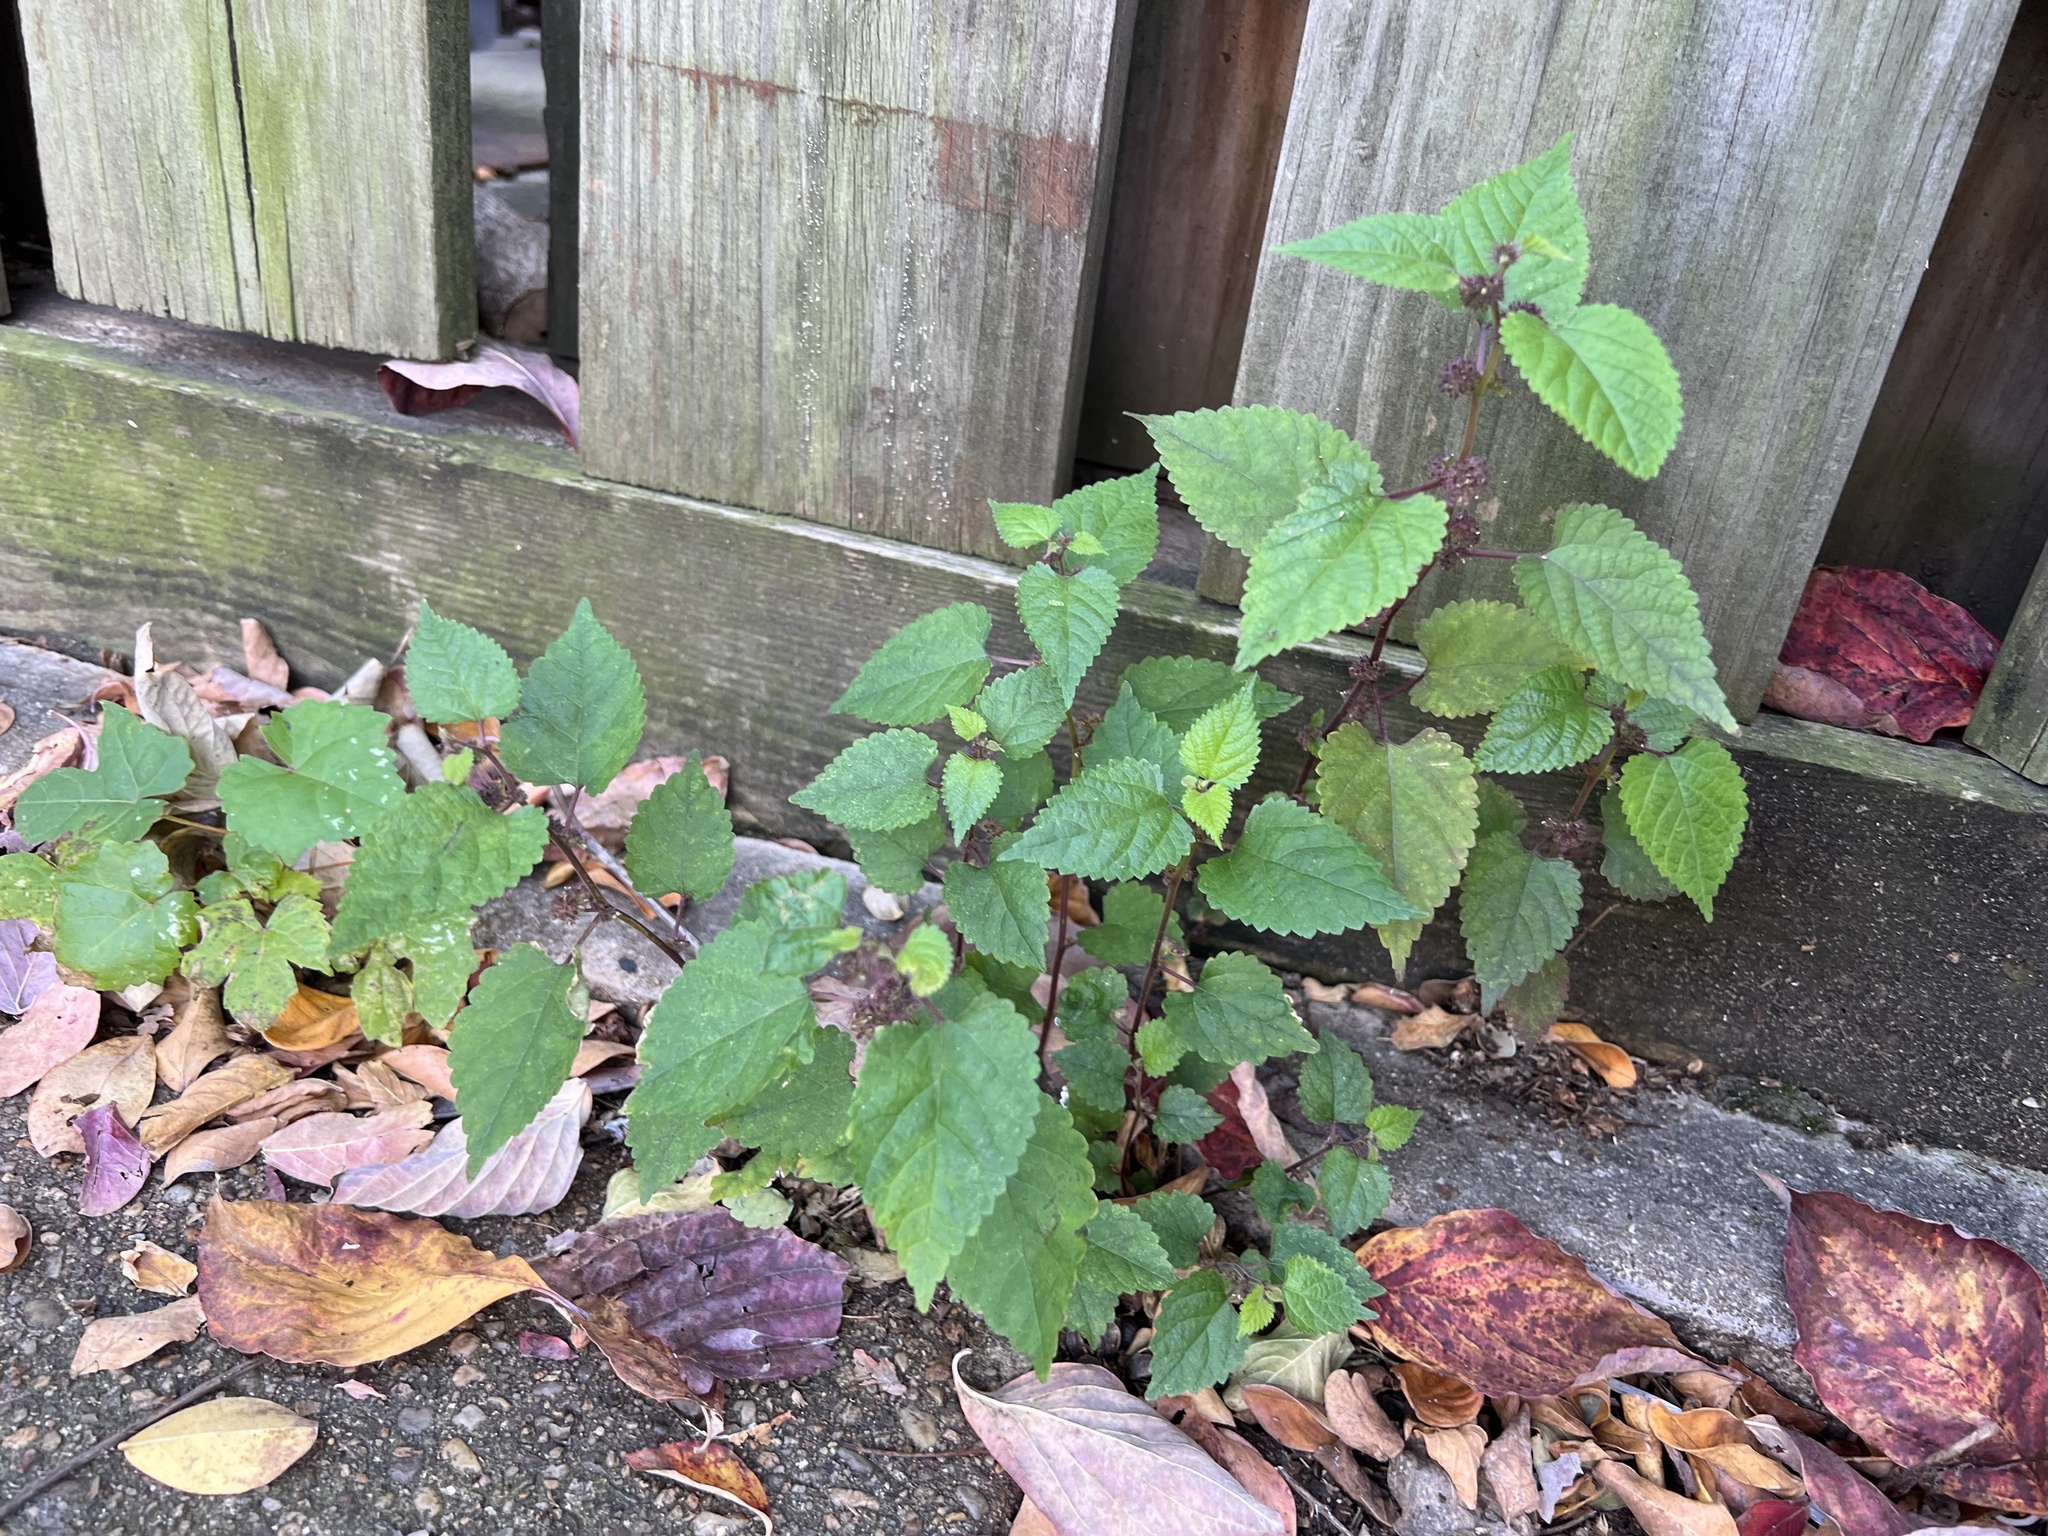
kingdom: Plantae
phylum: Tracheophyta
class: Magnoliopsida
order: Rosales
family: Moraceae
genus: Fatoua
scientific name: Fatoua villosa
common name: Hairy crabweed
